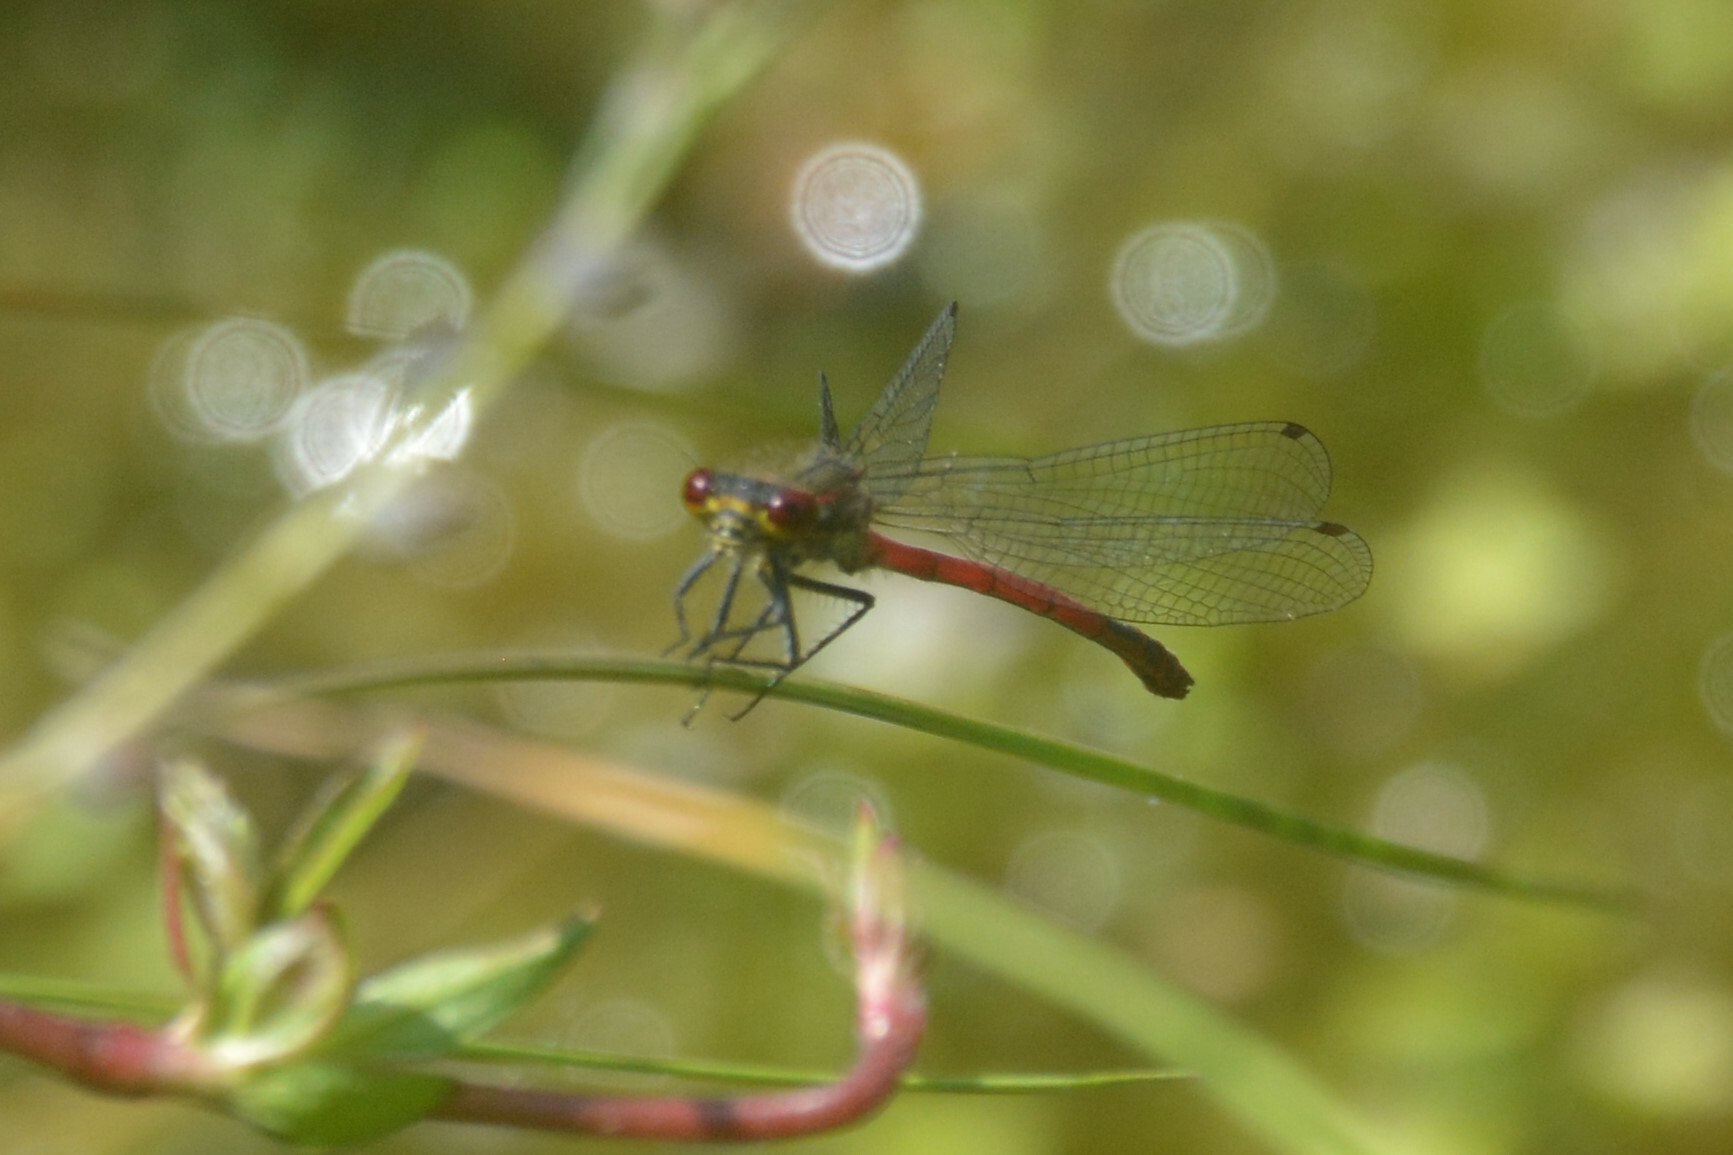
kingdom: Animalia
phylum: Arthropoda
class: Insecta
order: Odonata
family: Coenagrionidae
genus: Pyrrhosoma
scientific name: Pyrrhosoma nymphula
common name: Large red damsel
